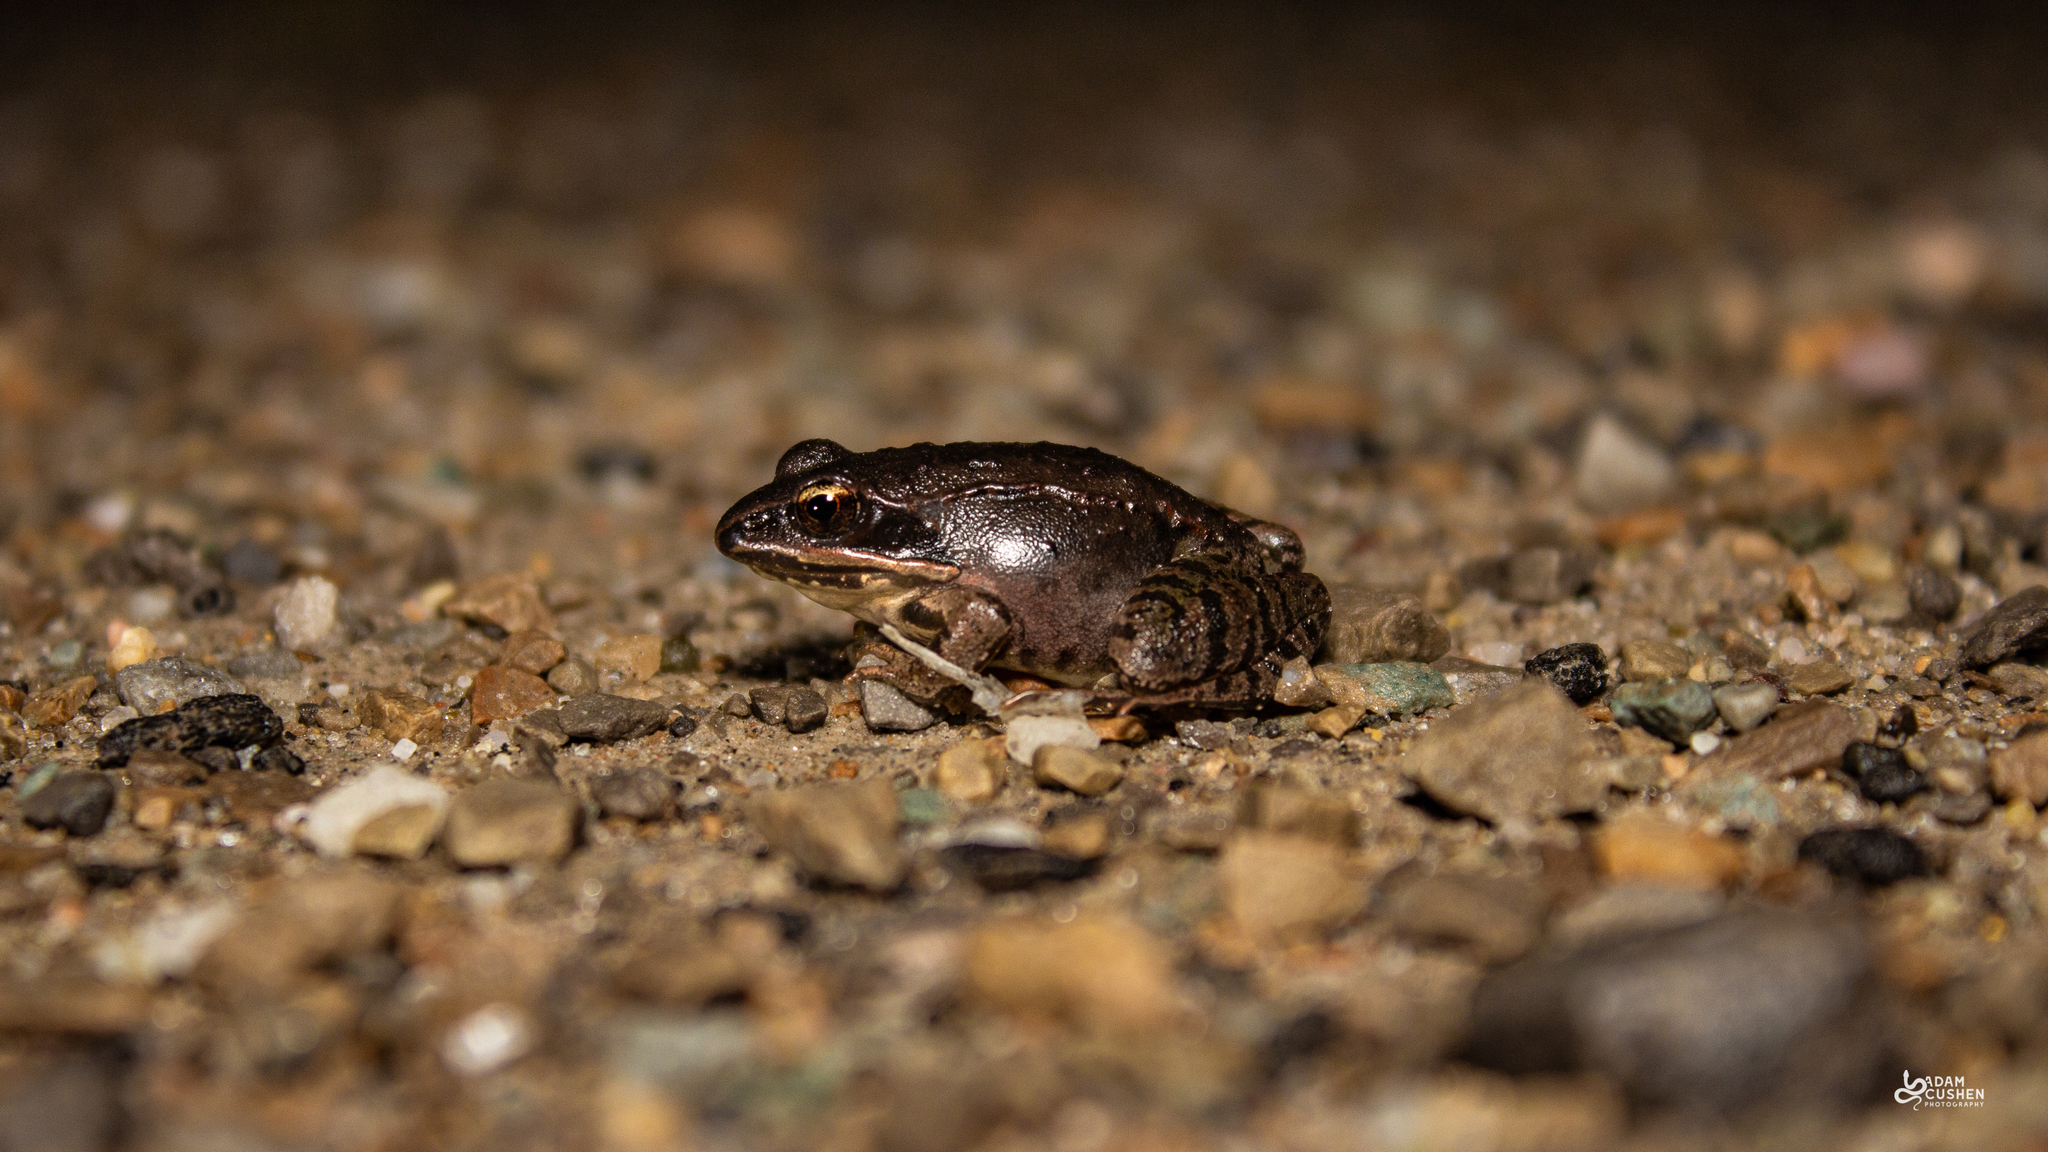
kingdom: Animalia
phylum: Chordata
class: Amphibia
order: Anura
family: Ranidae
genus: Lithobates
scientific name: Lithobates sylvaticus
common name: Wood frog
